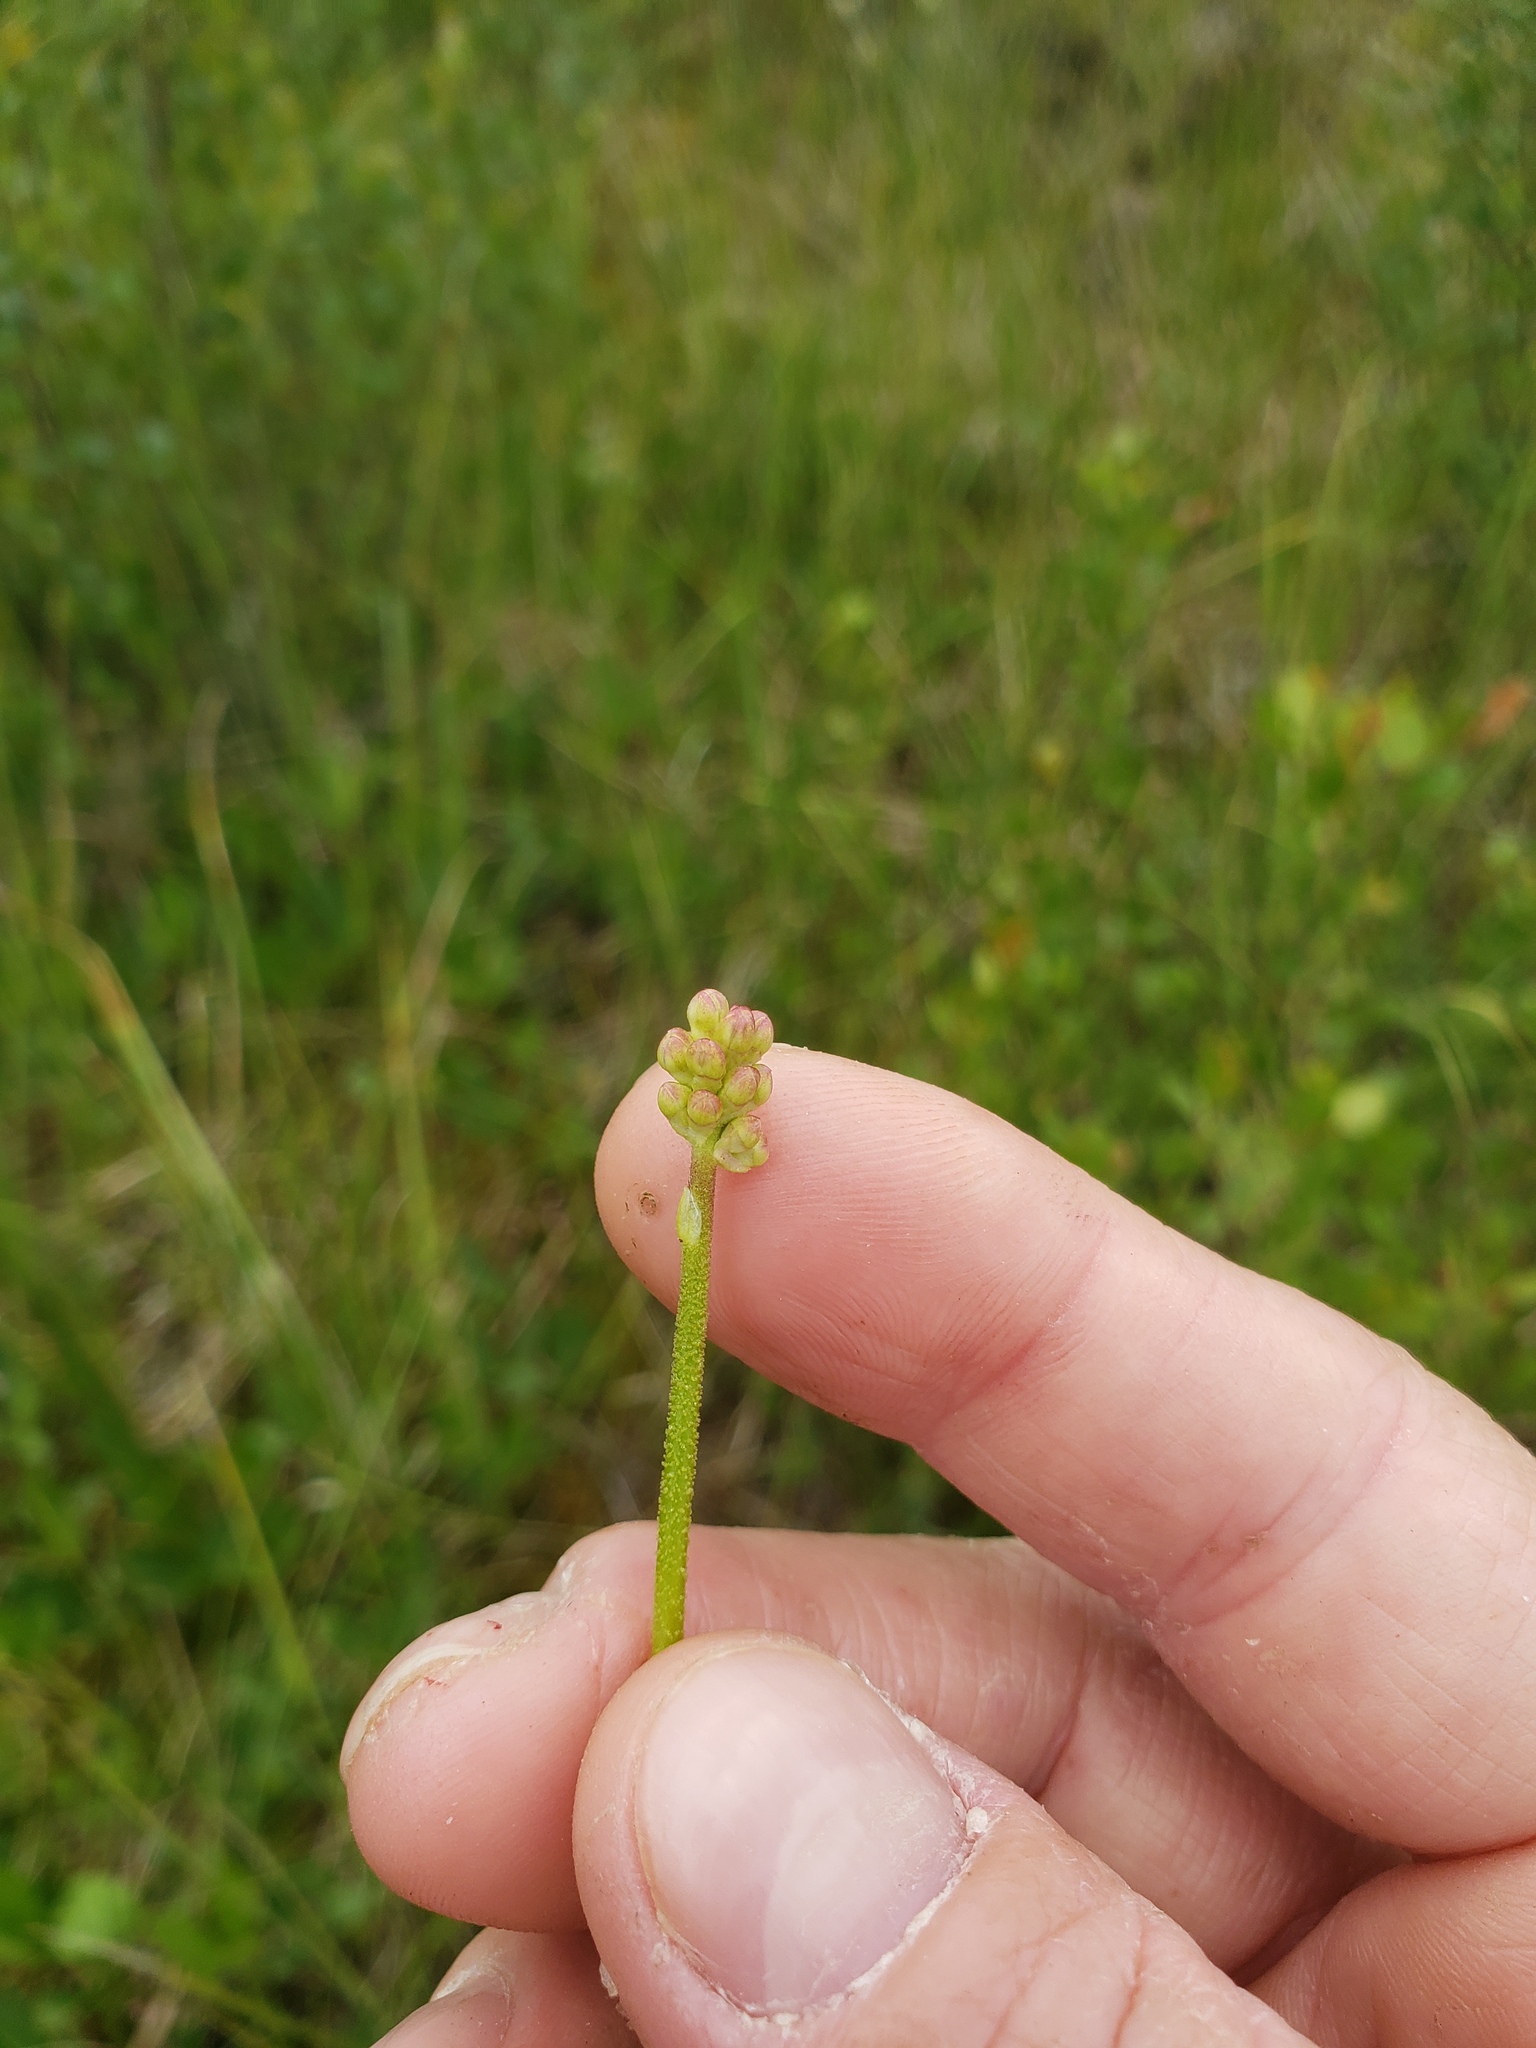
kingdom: Plantae
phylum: Tracheophyta
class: Liliopsida
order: Alismatales
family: Tofieldiaceae
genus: Triantha
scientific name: Triantha glutinosa
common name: Glutinous tofieldia
